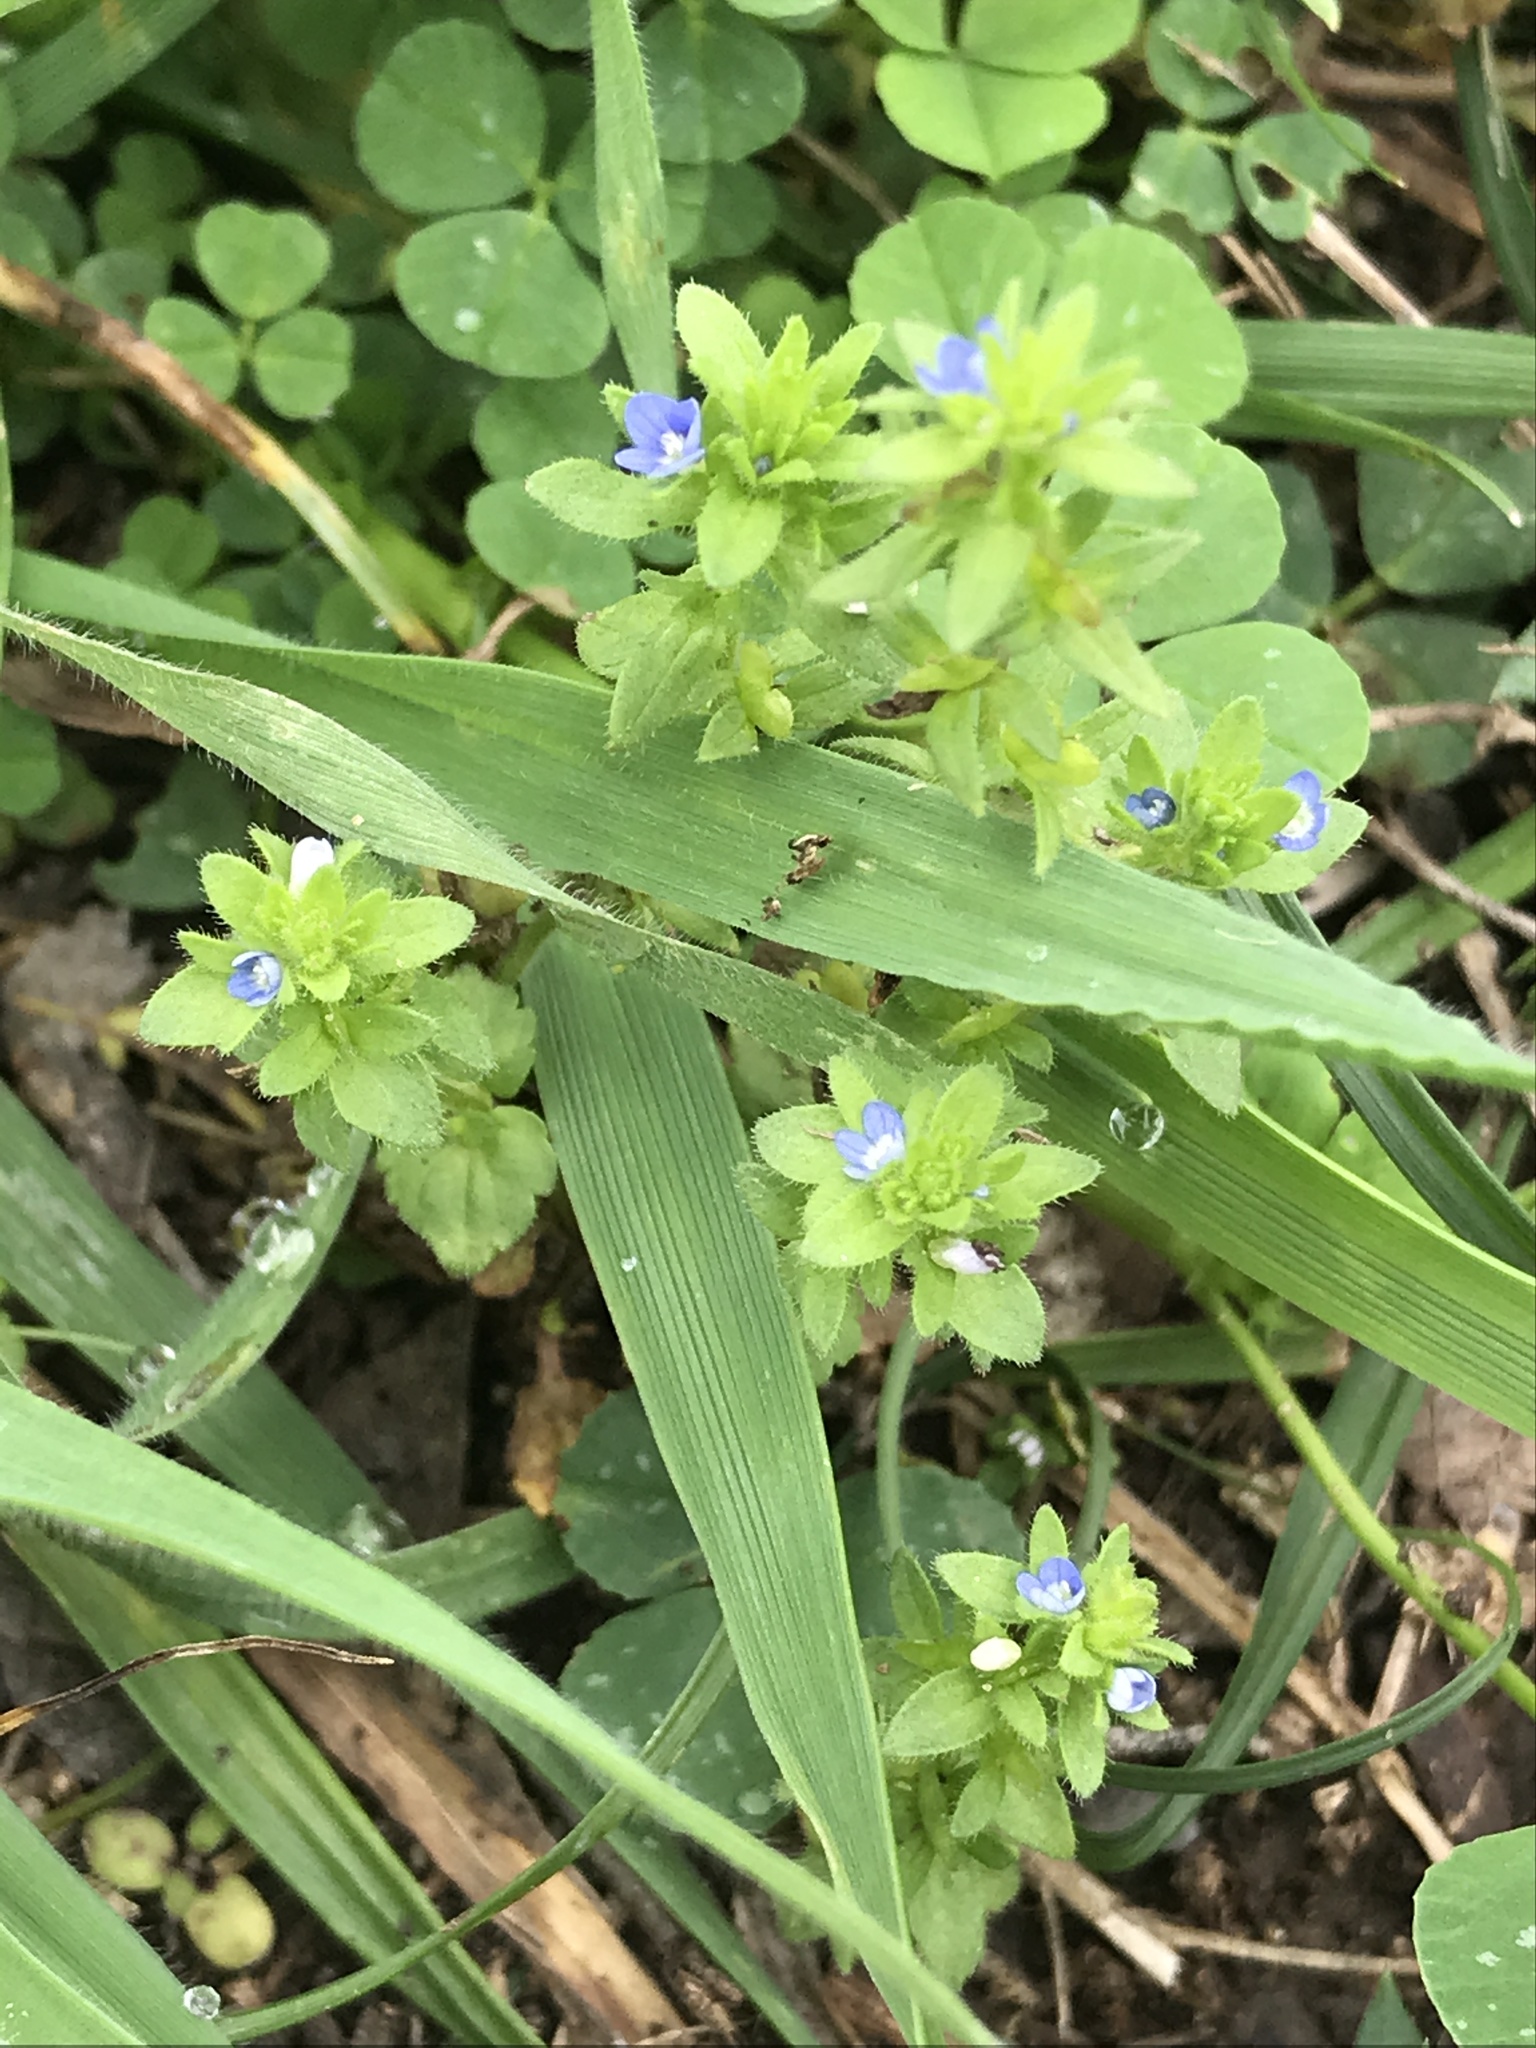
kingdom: Plantae
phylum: Tracheophyta
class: Magnoliopsida
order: Lamiales
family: Plantaginaceae
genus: Veronica
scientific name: Veronica arvensis
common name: Corn speedwell
